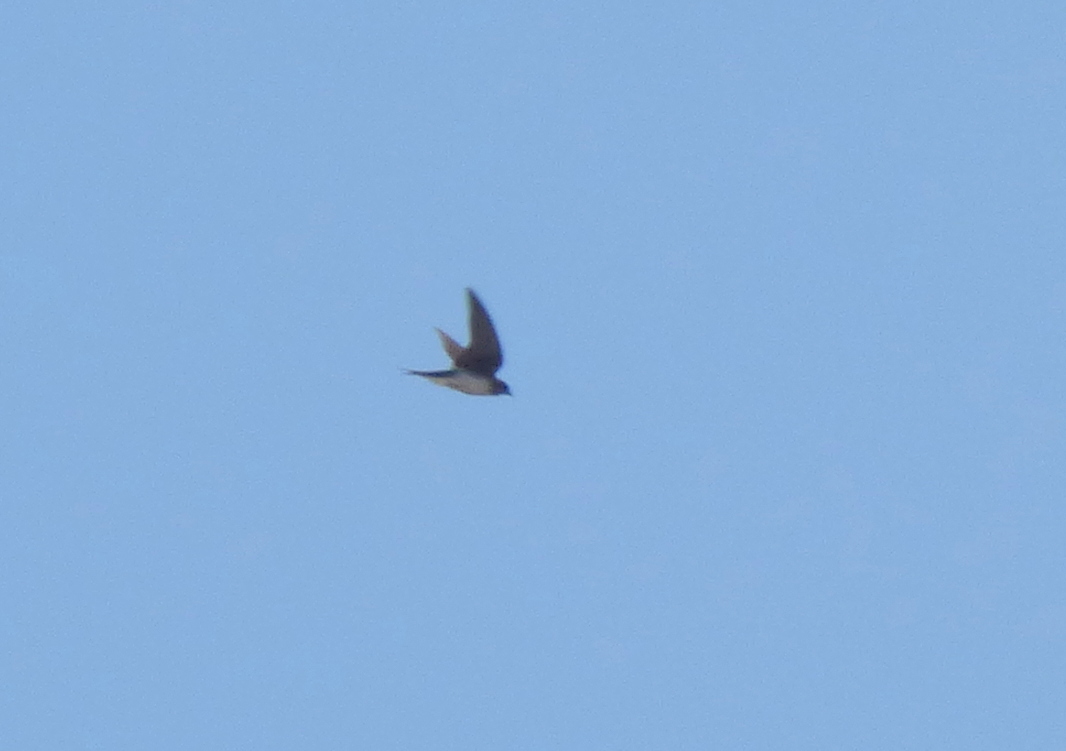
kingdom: Animalia
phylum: Chordata
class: Aves
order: Passeriformes
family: Hirundinidae
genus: Progne
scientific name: Progne chalybea
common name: Grey-breasted martin
